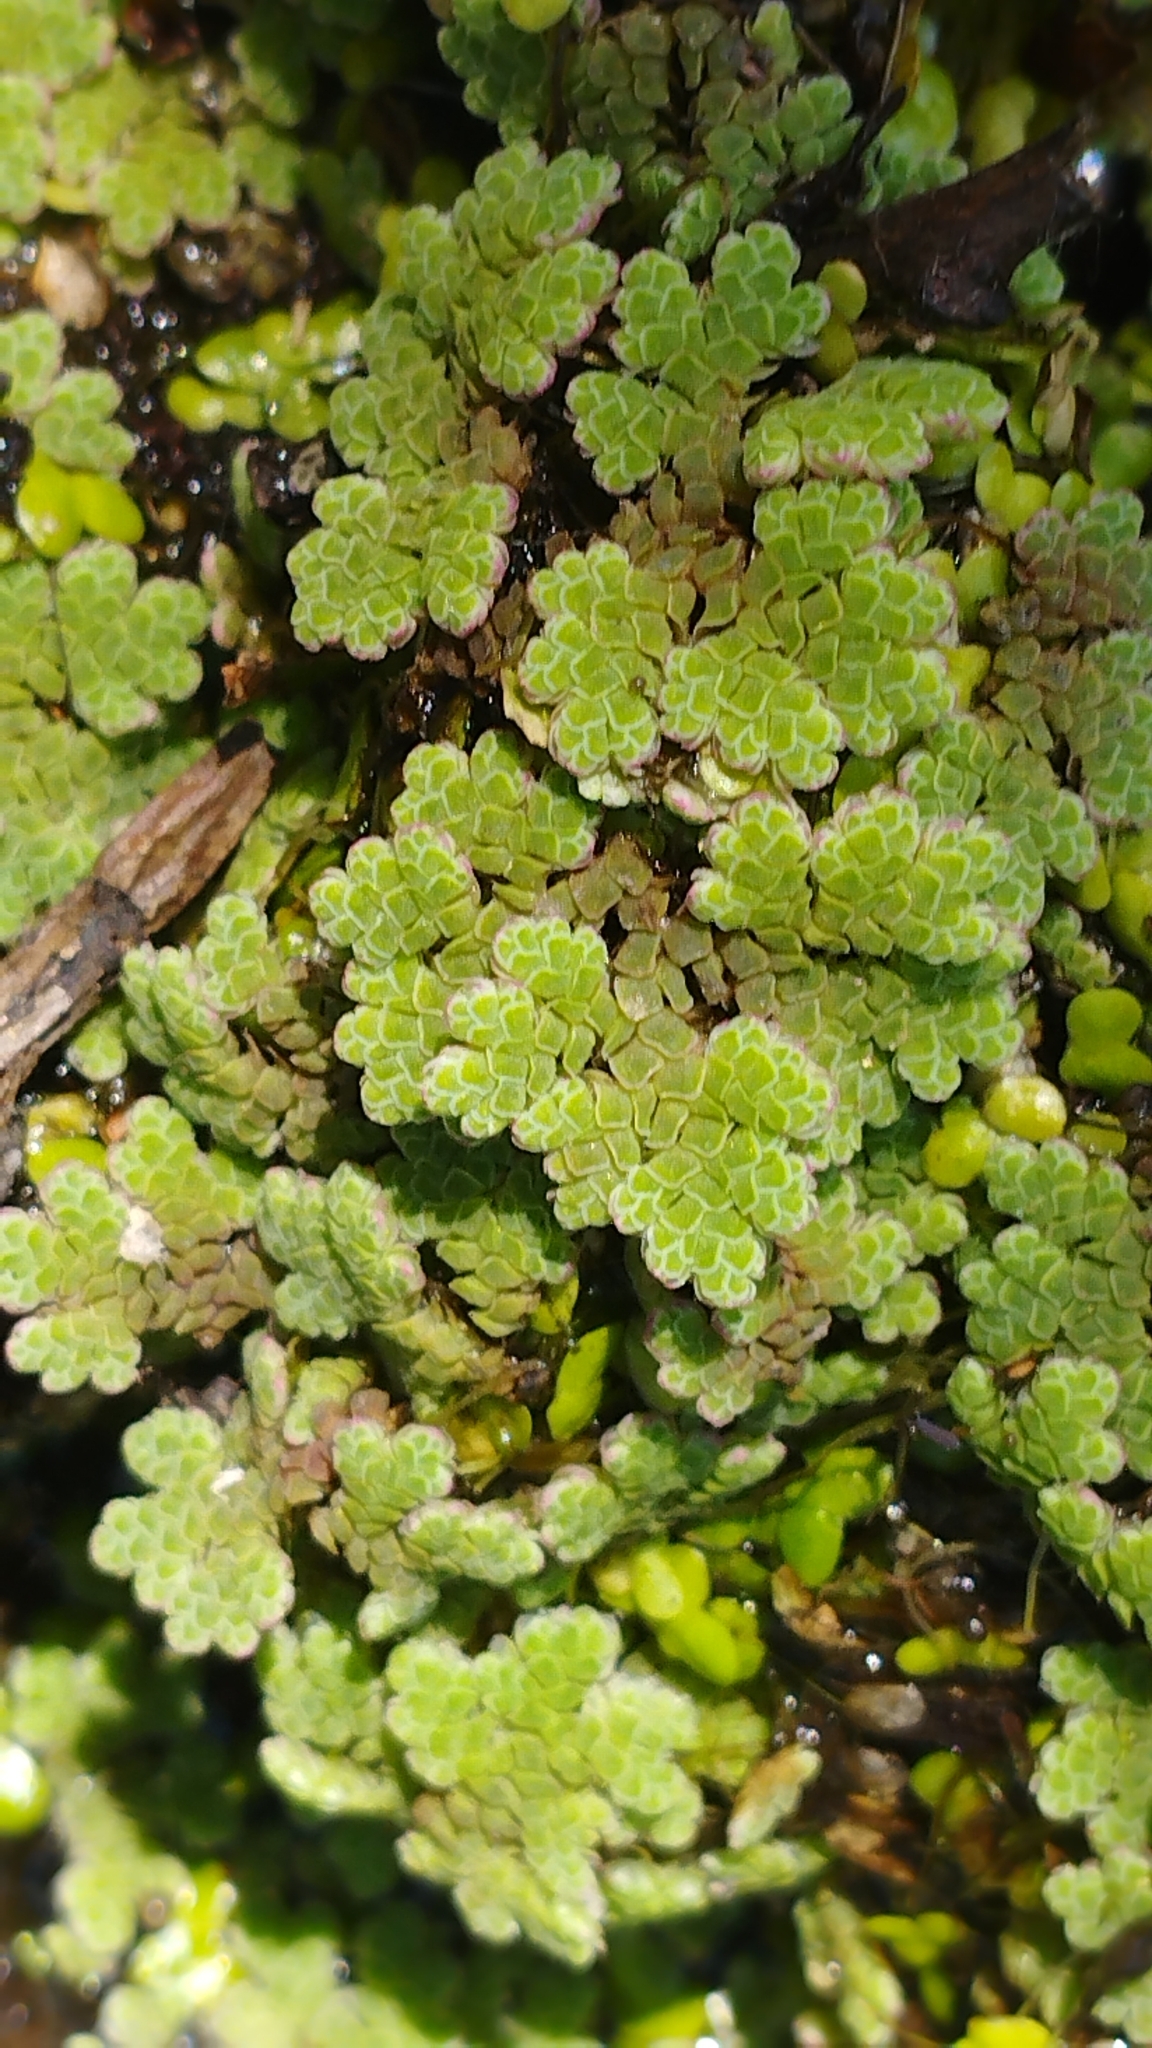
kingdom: Plantae
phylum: Tracheophyta
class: Polypodiopsida
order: Salviniales
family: Salviniaceae
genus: Azolla
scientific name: Azolla rubra
